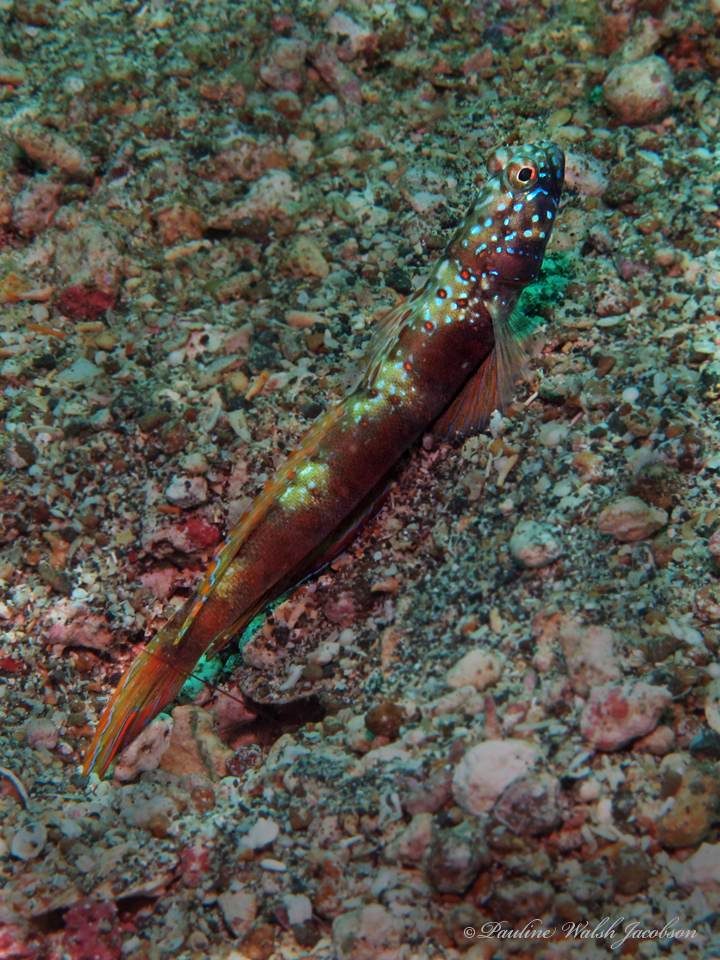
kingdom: Animalia
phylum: Chordata
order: Perciformes
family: Gobiidae
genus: Amblyeleotris
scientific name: Amblyeleotris latifasciata
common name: Broad-band prawn-goby
